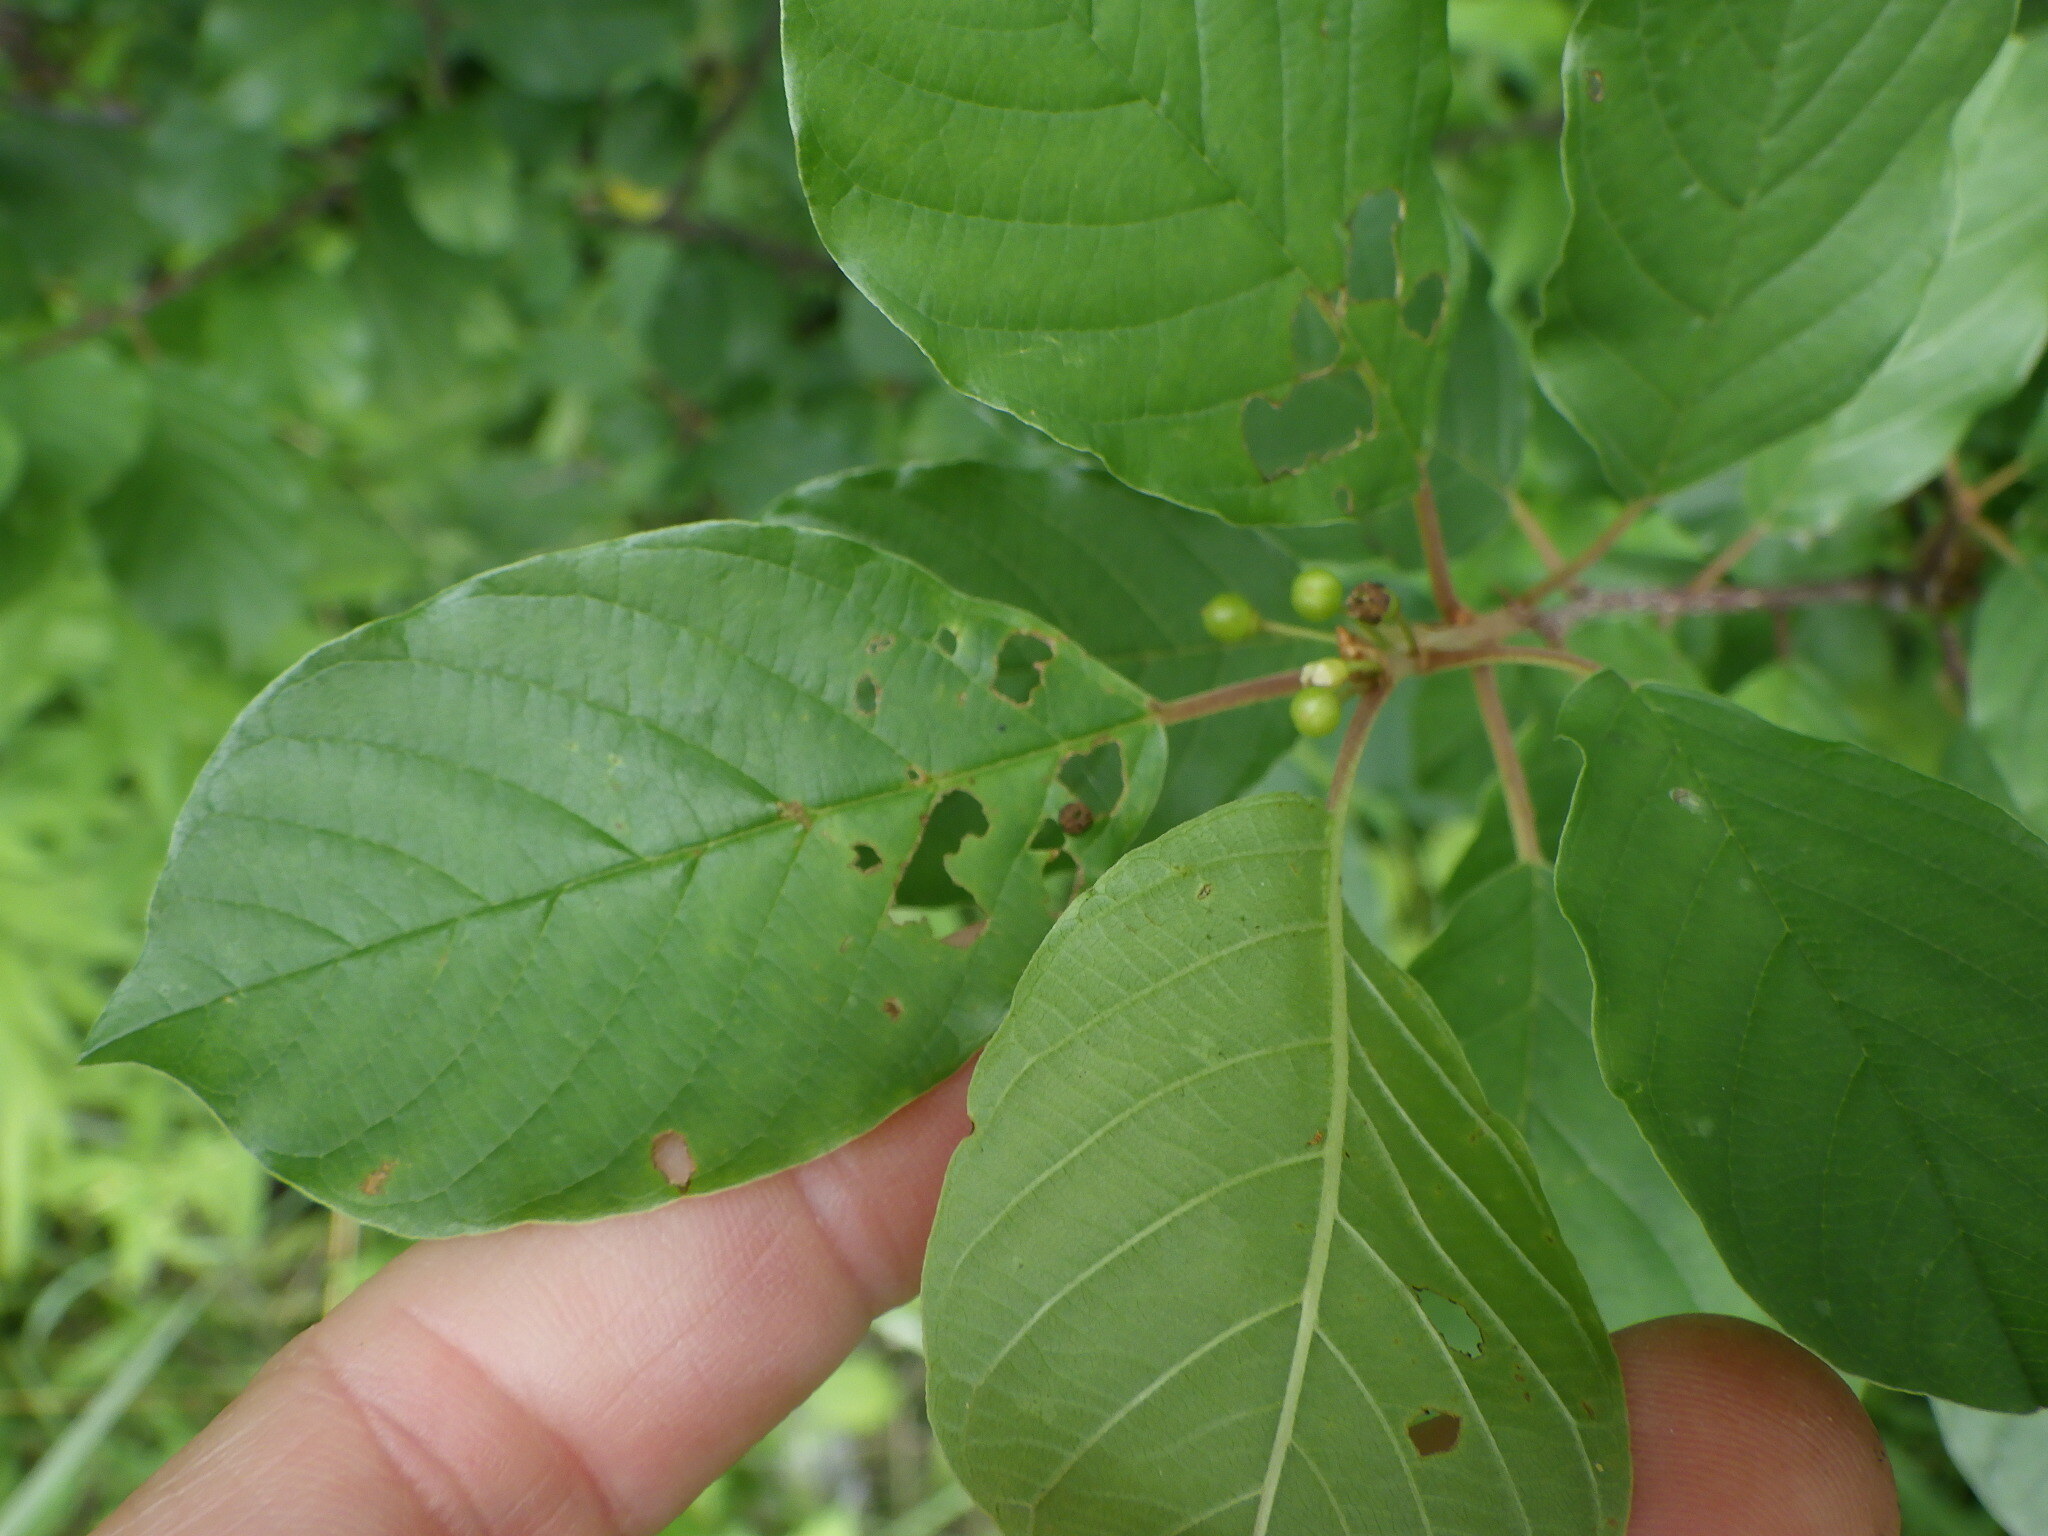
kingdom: Plantae
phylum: Tracheophyta
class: Magnoliopsida
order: Rosales
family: Rhamnaceae
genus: Frangula
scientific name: Frangula alnus
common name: Alder buckthorn
